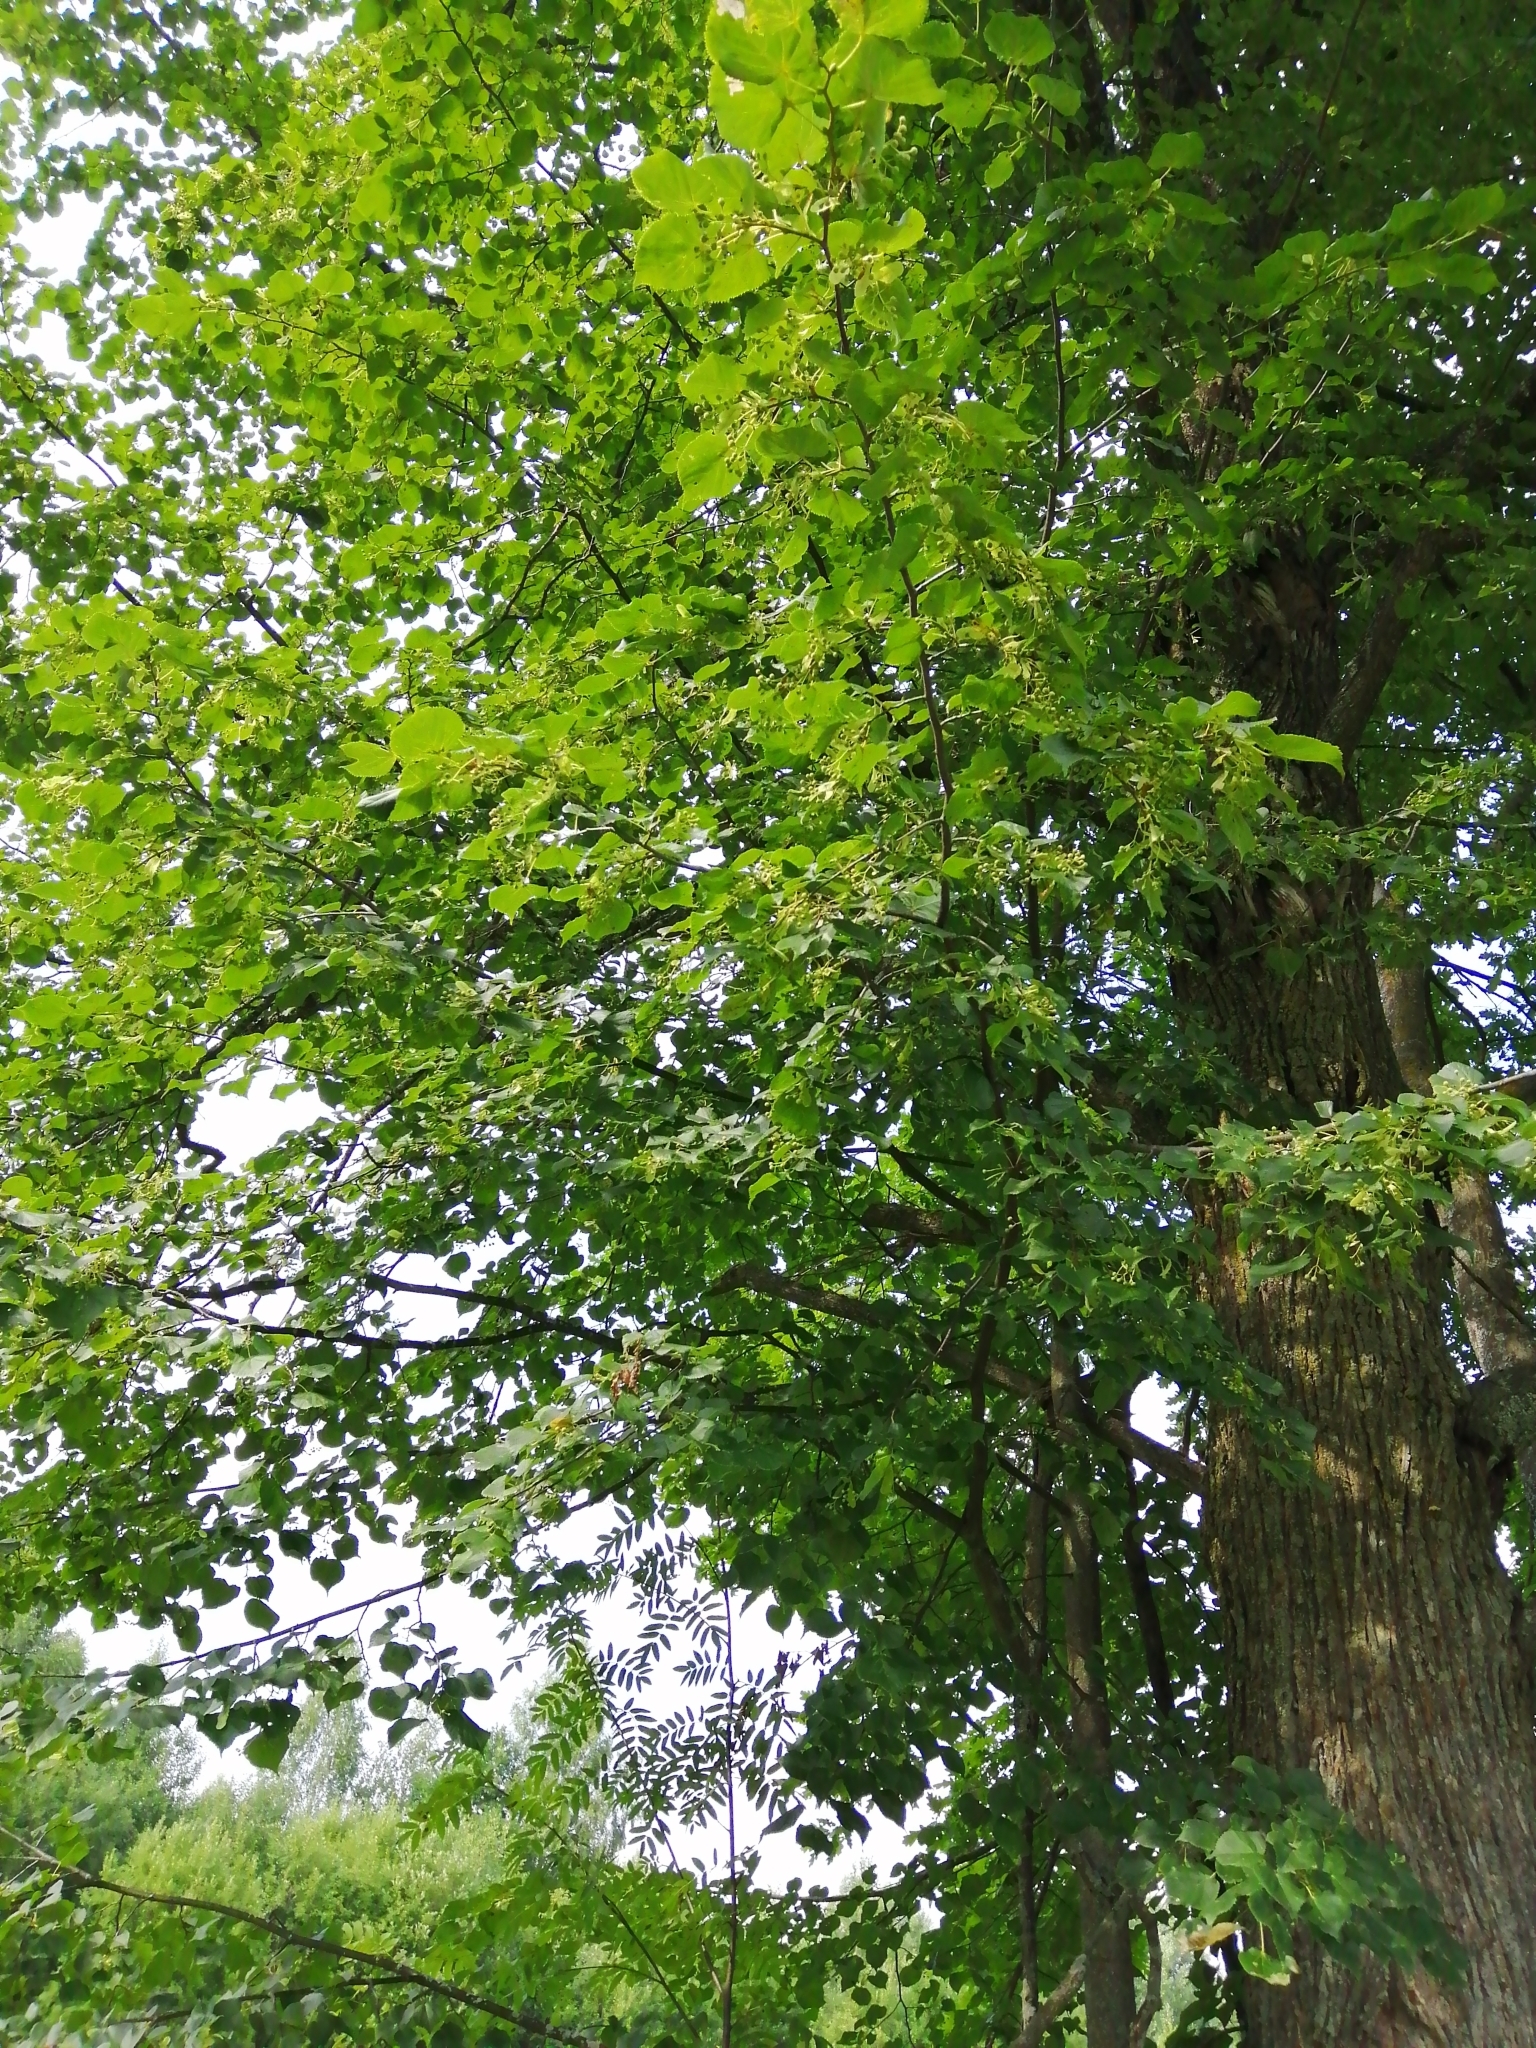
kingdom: Plantae
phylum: Tracheophyta
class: Magnoliopsida
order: Malvales
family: Malvaceae
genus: Tilia
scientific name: Tilia cordata
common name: Small-leaved lime
